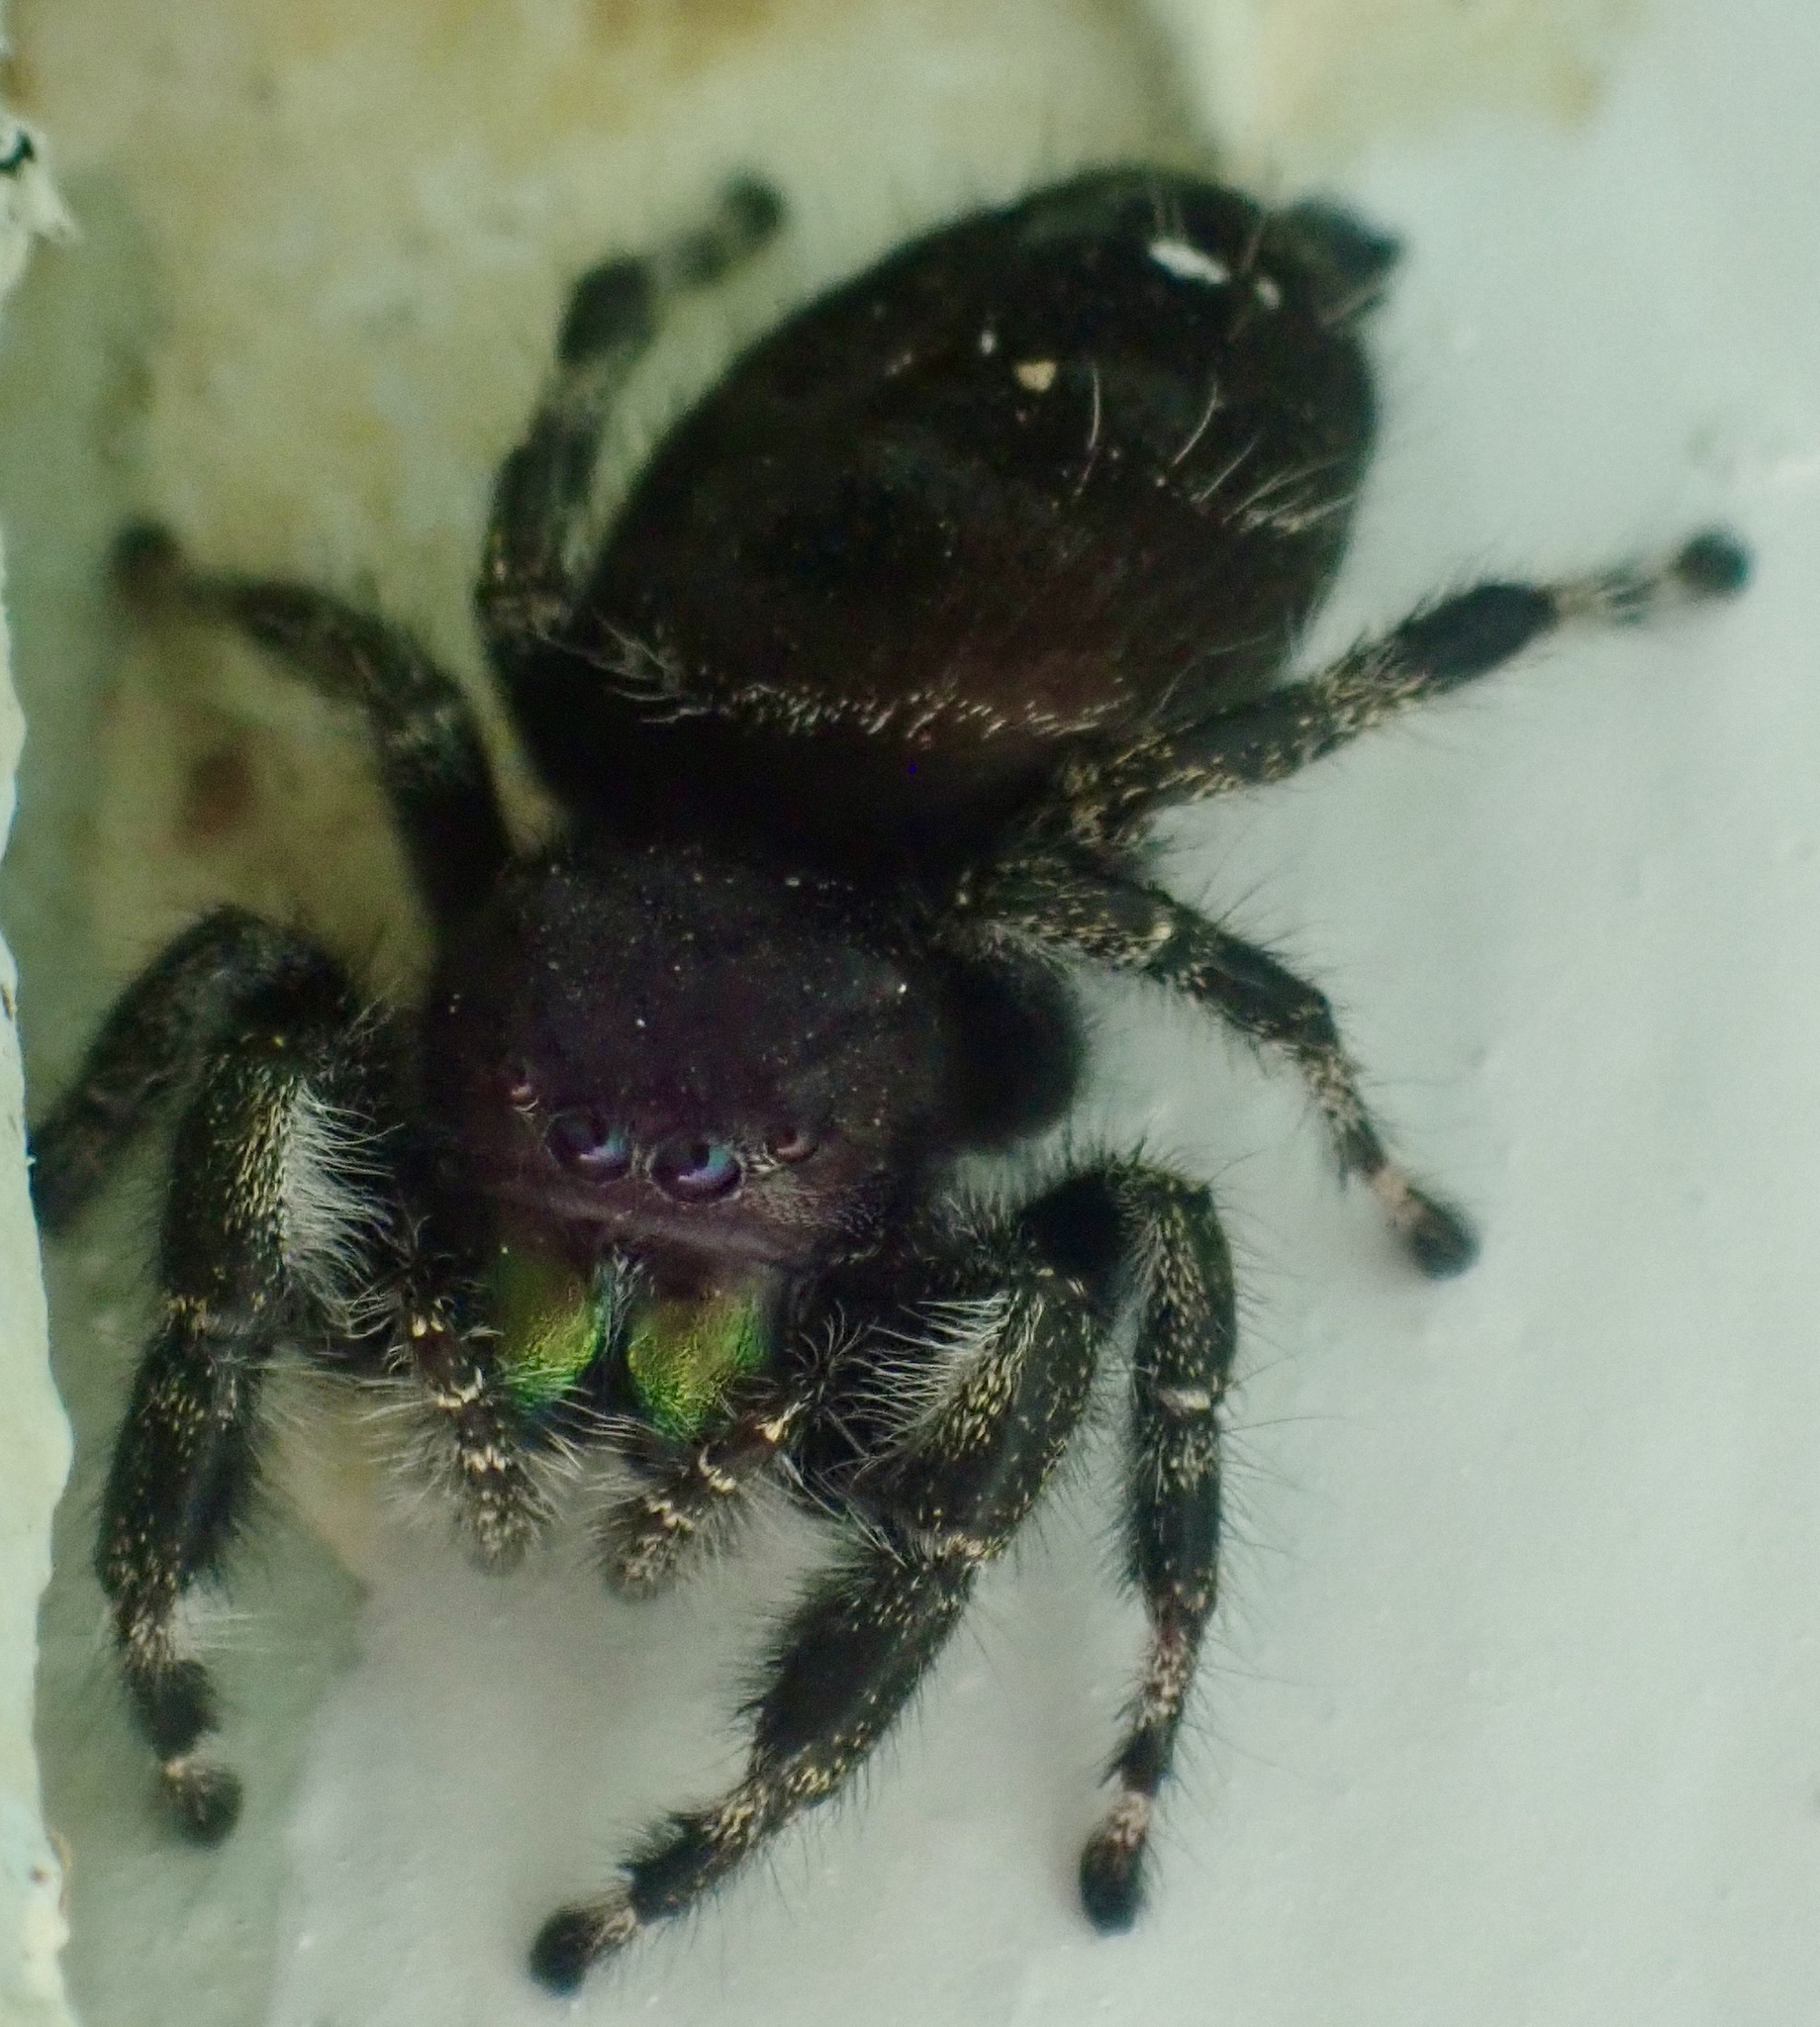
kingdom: Animalia
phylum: Arthropoda
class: Arachnida
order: Araneae
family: Salticidae
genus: Phidippus
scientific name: Phidippus audax
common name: Bold jumper
